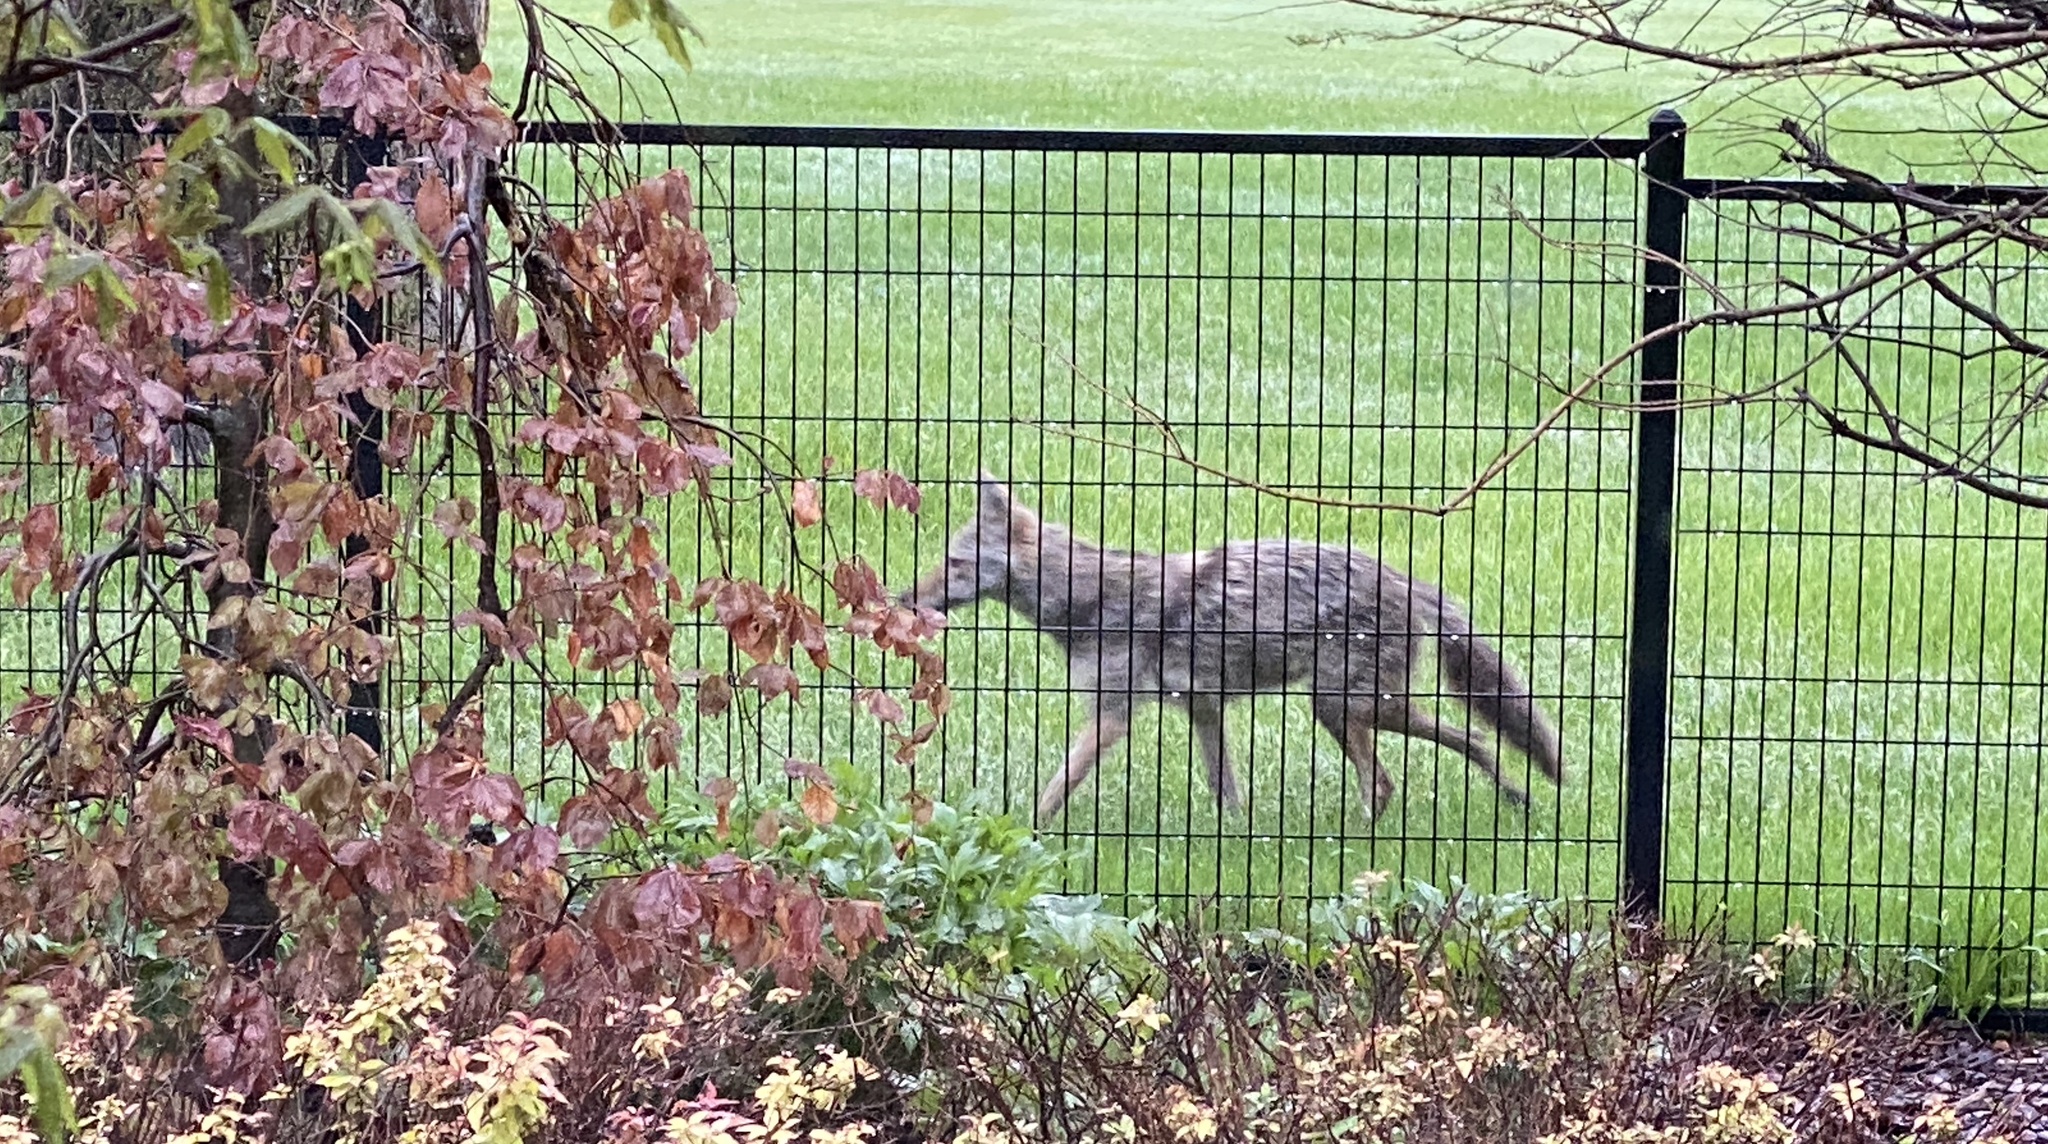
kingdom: Animalia
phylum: Chordata
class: Mammalia
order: Carnivora
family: Canidae
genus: Canis
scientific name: Canis latrans
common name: Coyote
